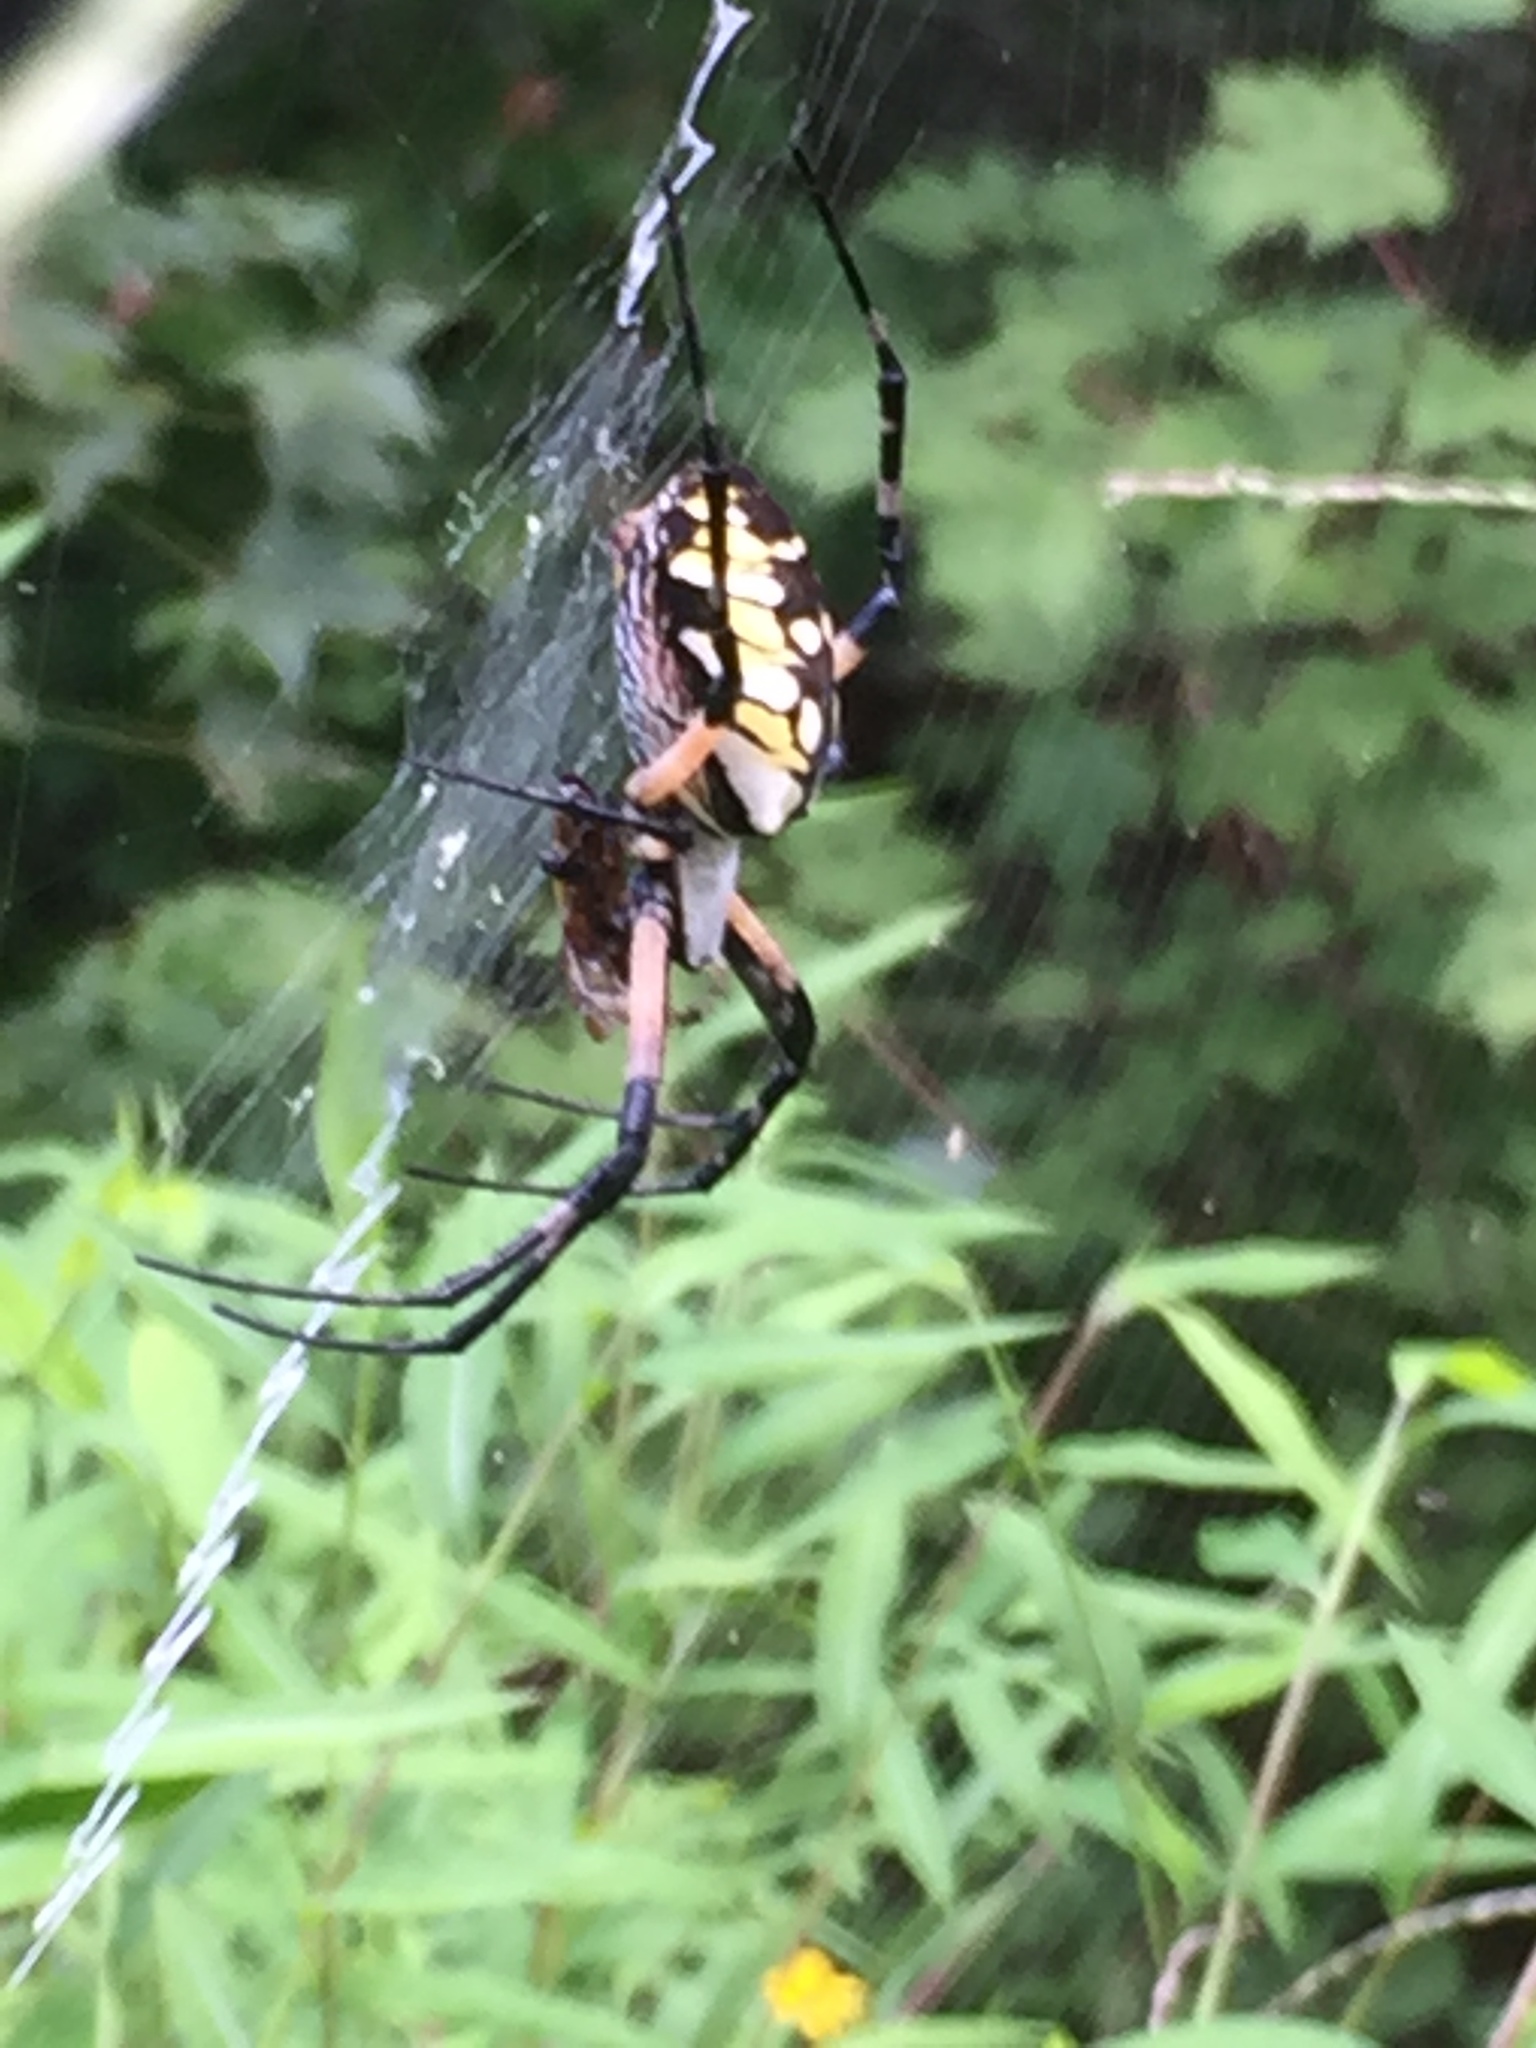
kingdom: Animalia
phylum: Arthropoda
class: Arachnida
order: Araneae
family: Araneidae
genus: Argiope
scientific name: Argiope aurantia
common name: Orb weavers
